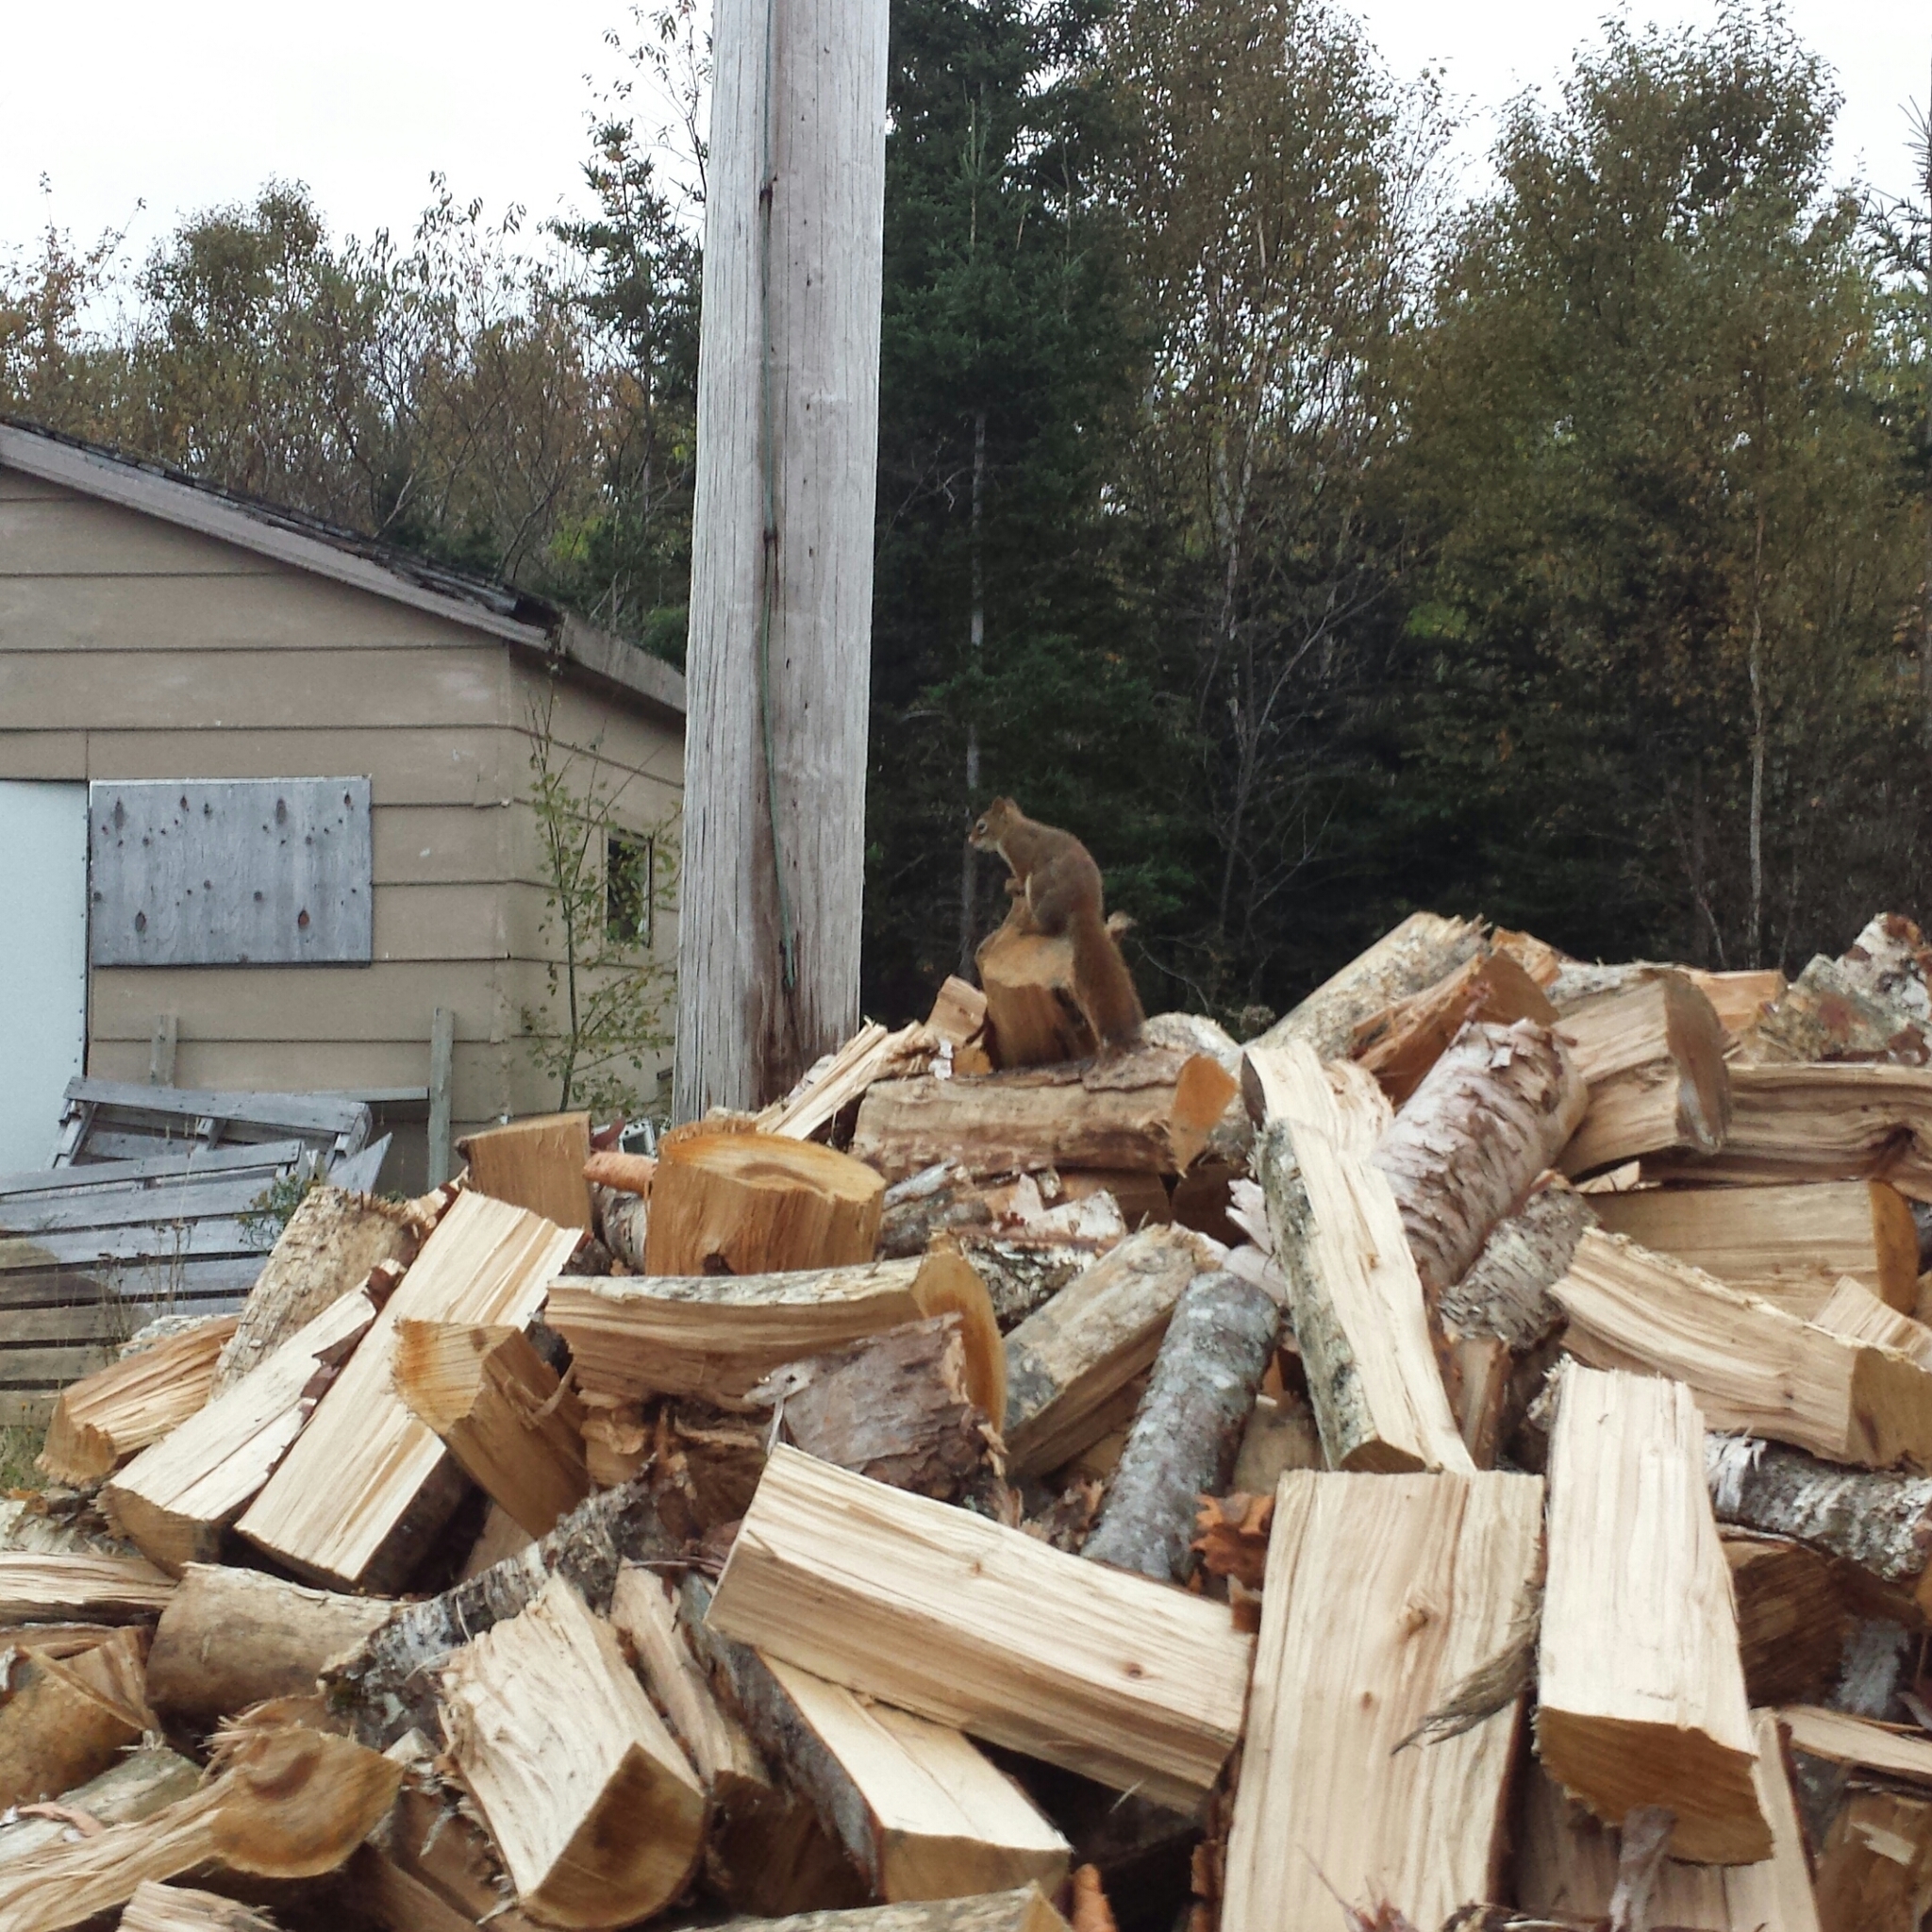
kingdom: Animalia
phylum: Chordata
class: Mammalia
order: Rodentia
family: Sciuridae
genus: Tamiasciurus
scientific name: Tamiasciurus hudsonicus
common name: Red squirrel
